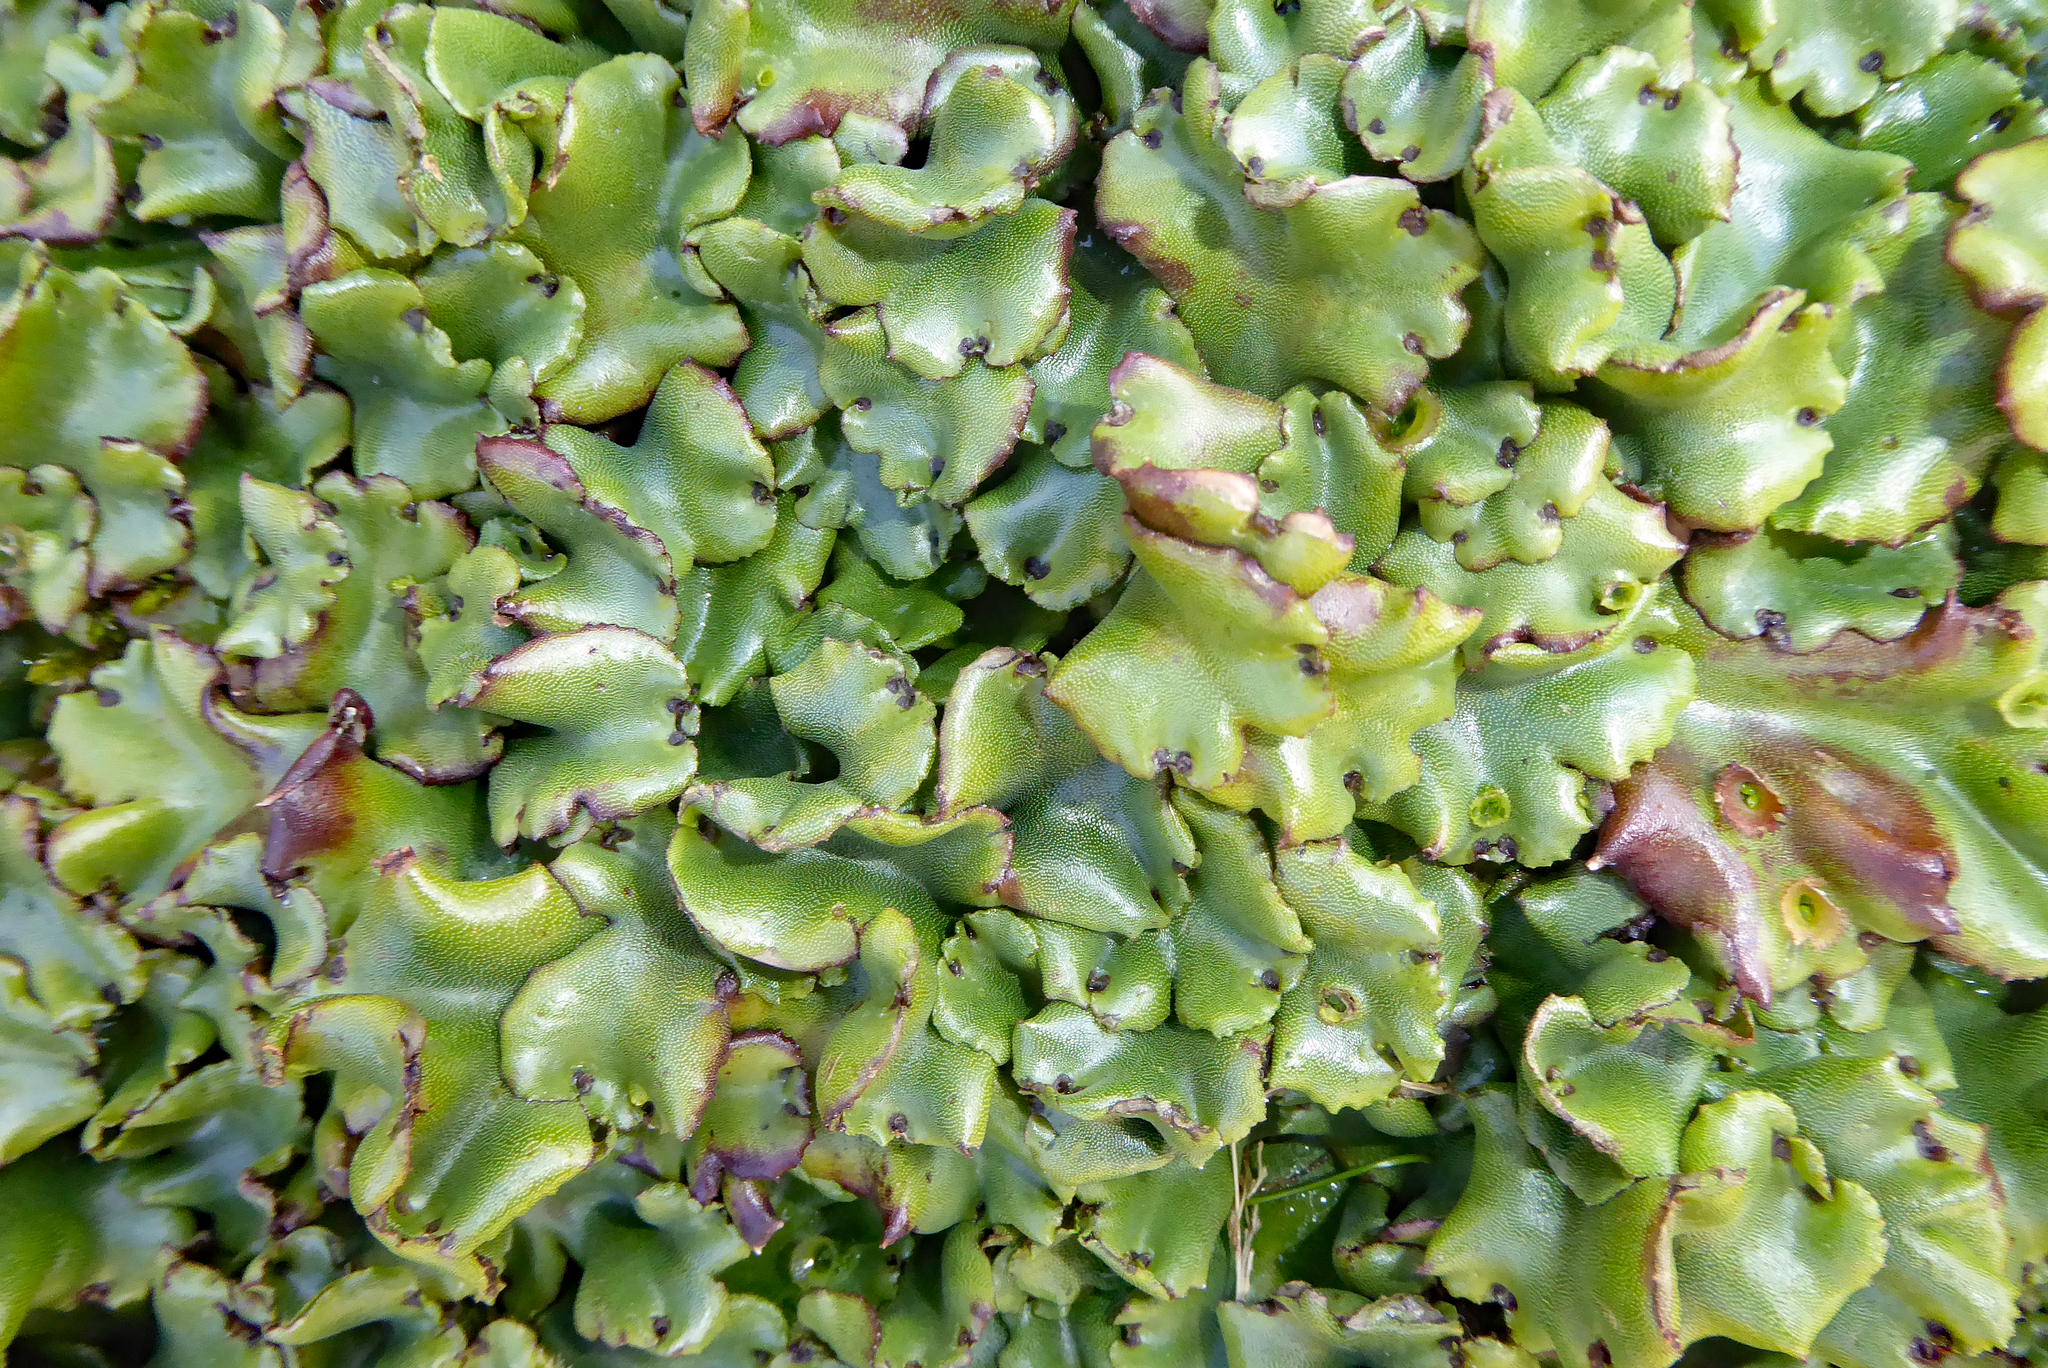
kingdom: Plantae
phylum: Marchantiophyta
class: Marchantiopsida
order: Marchantiales
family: Marchantiaceae
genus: Marchantia
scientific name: Marchantia berteroana
